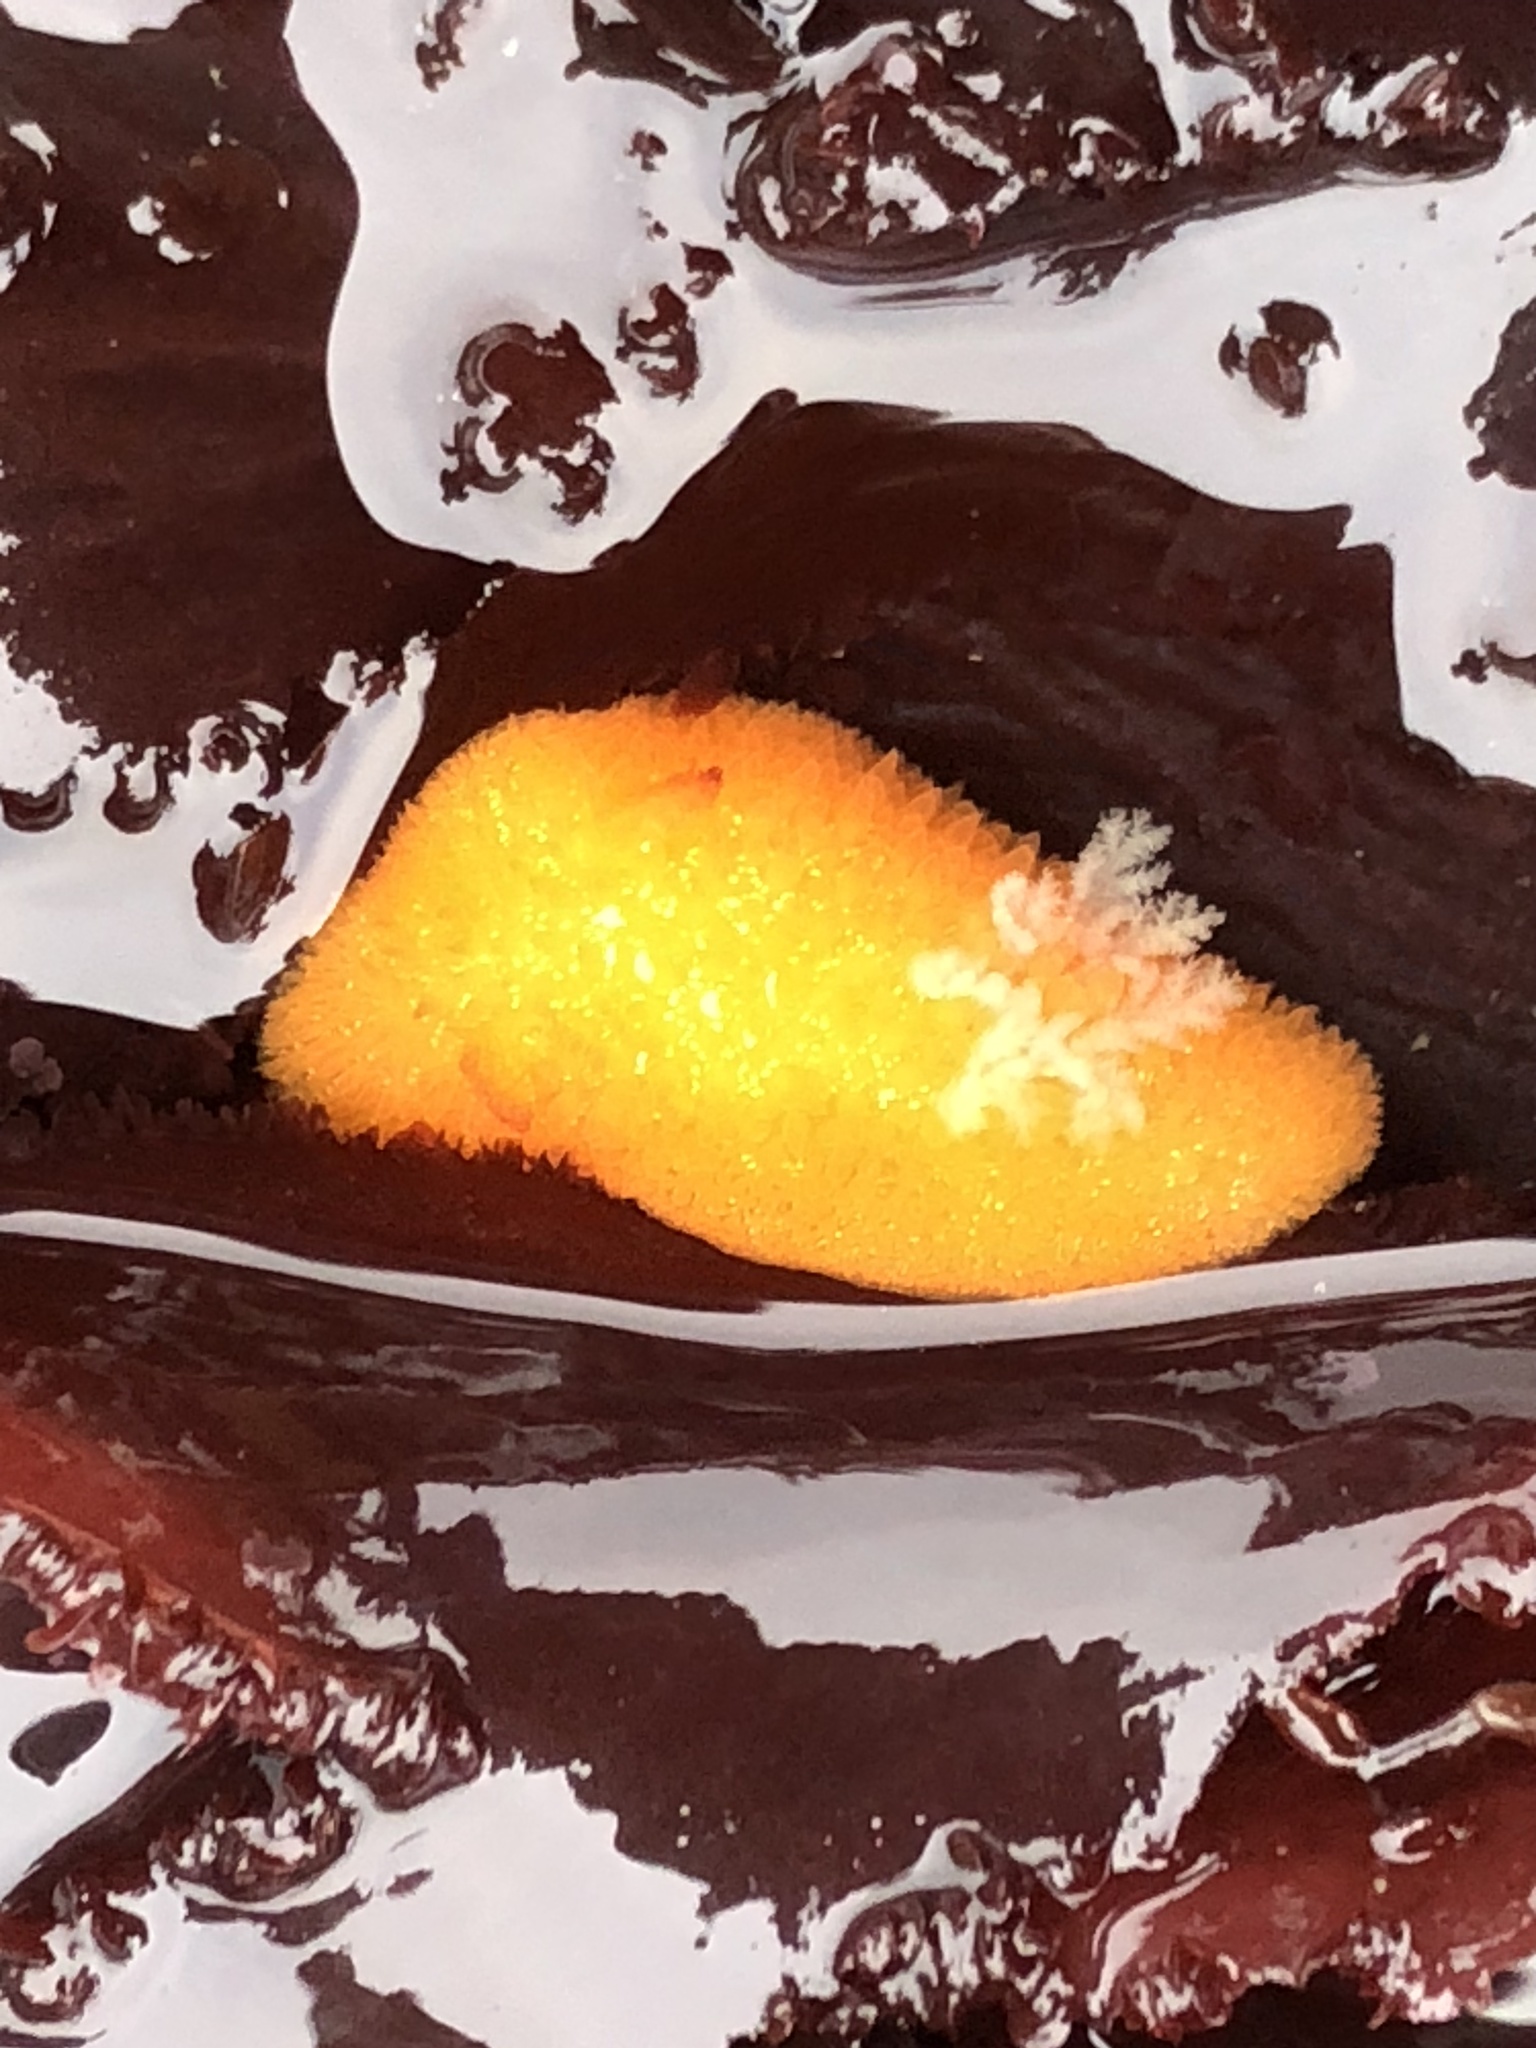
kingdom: Animalia
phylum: Mollusca
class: Gastropoda
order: Nudibranchia
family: Onchidorididae
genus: Acanthodoris
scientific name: Acanthodoris lutea
